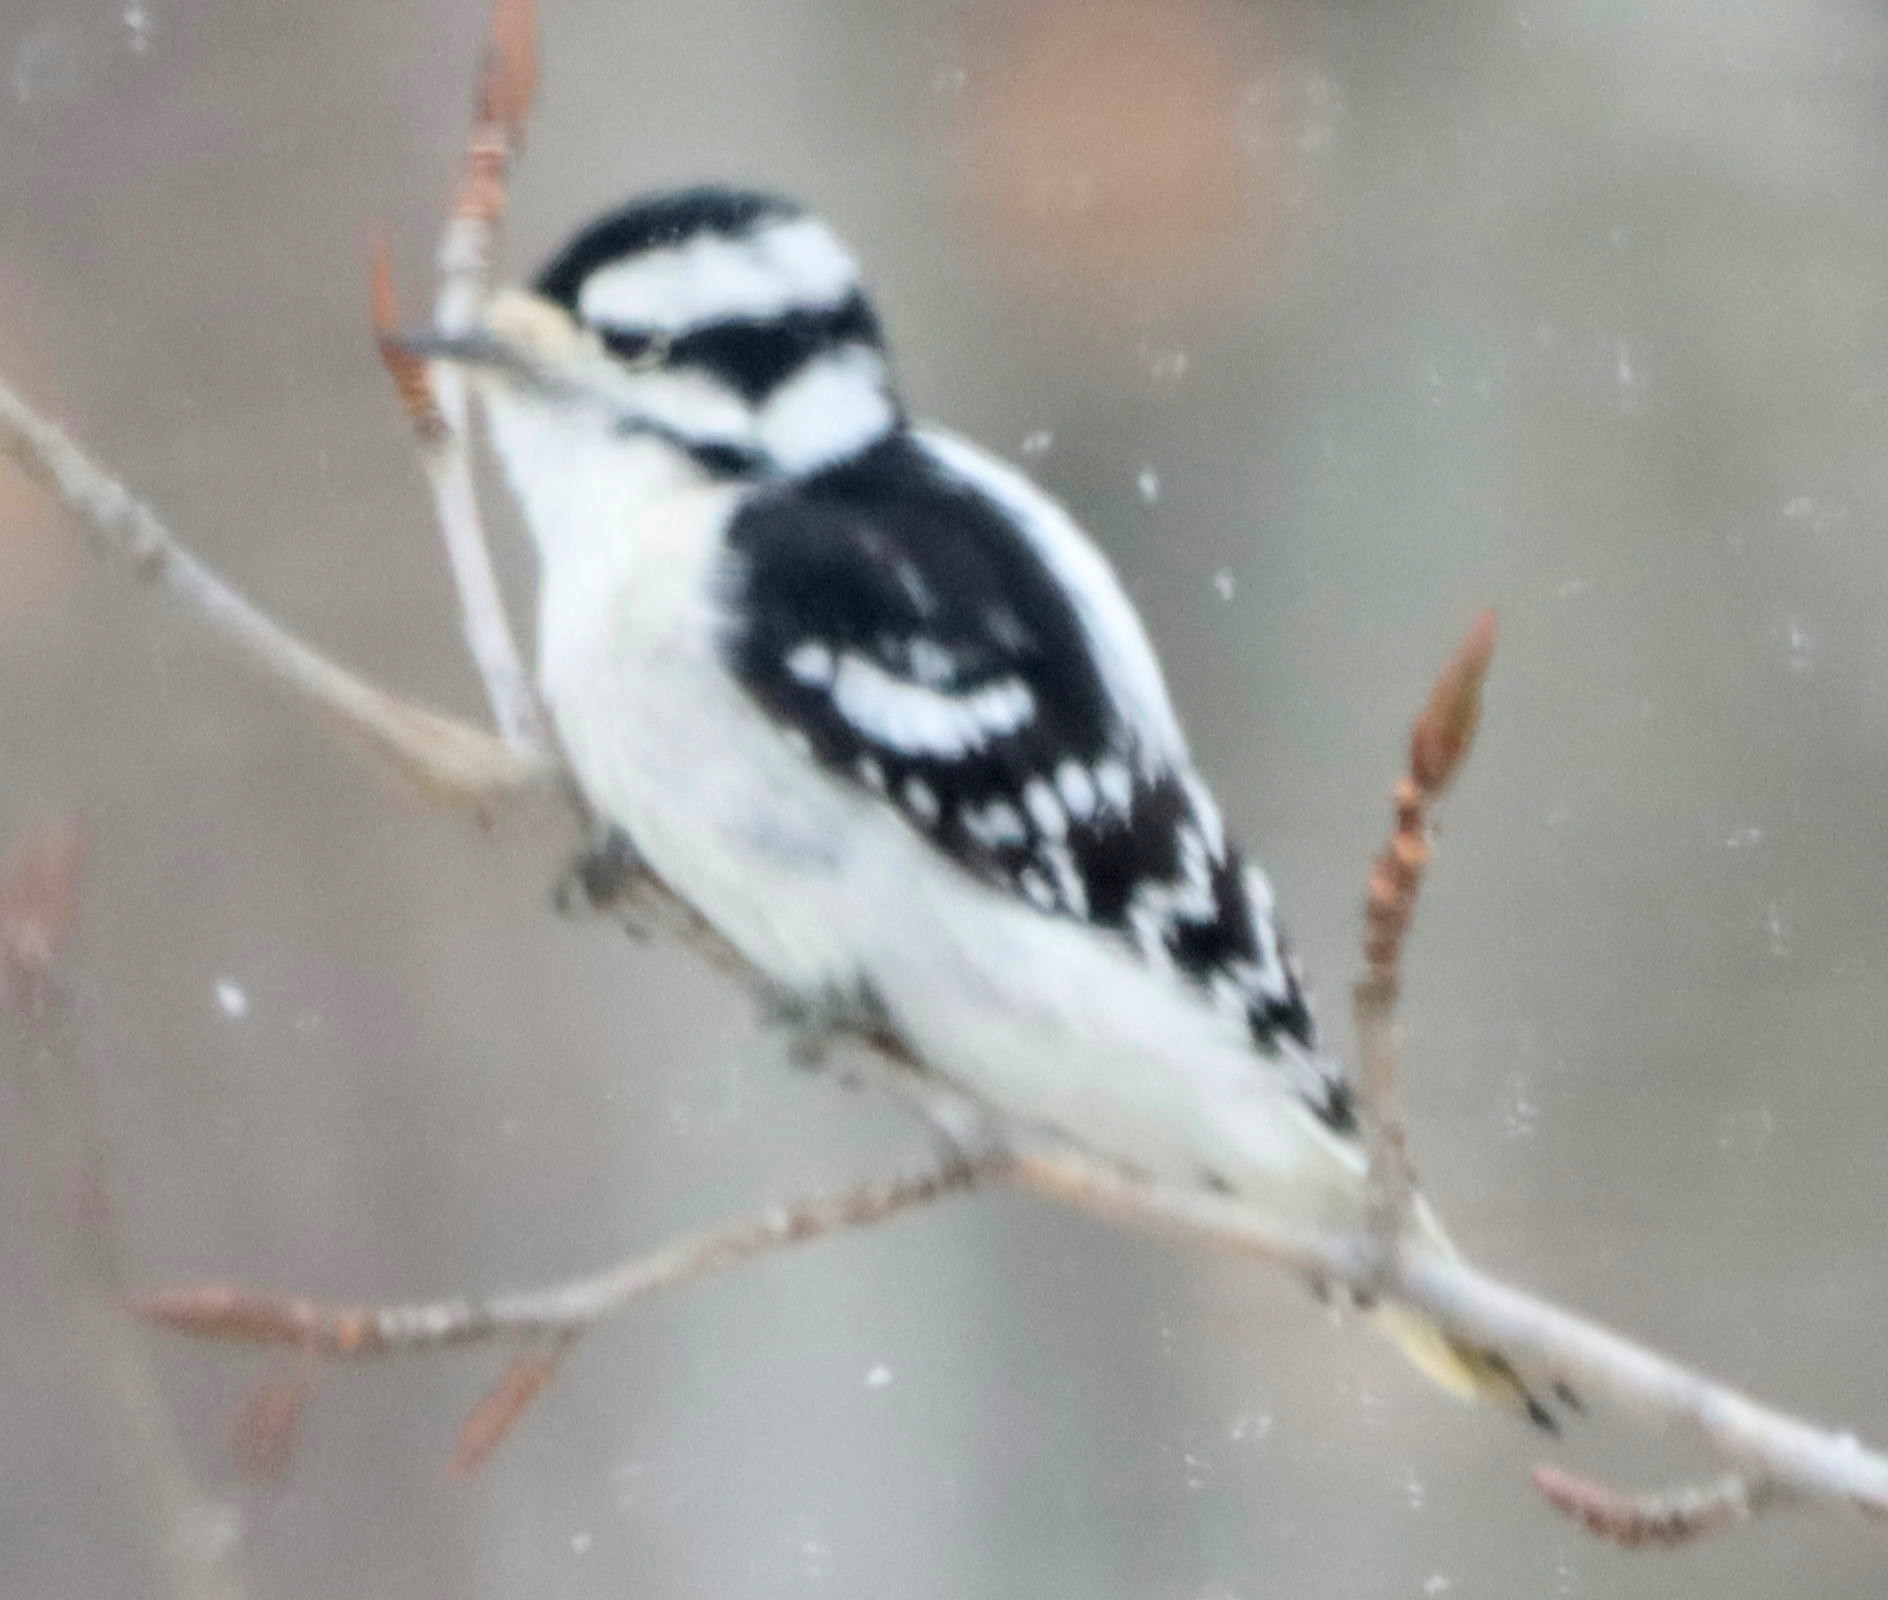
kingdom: Animalia
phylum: Chordata
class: Aves
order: Piciformes
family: Picidae
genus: Dryobates
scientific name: Dryobates pubescens
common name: Downy woodpecker
